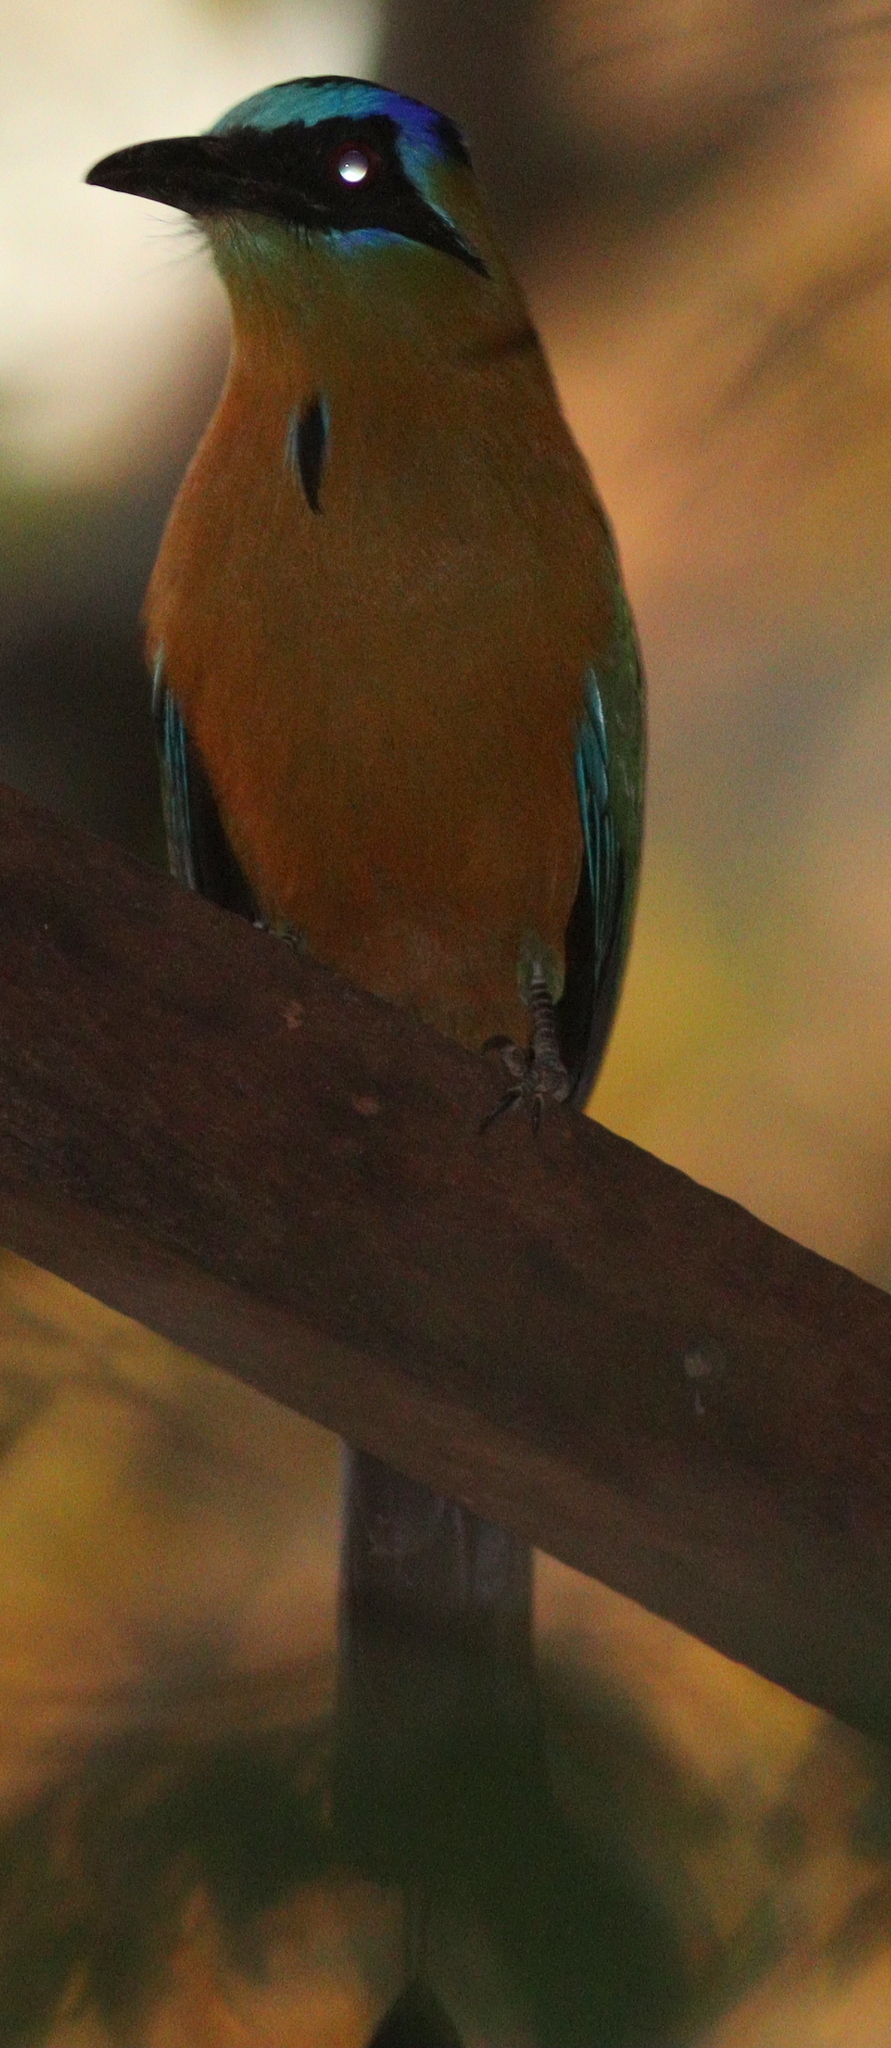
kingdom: Animalia
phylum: Chordata
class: Aves
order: Coraciiformes
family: Momotidae
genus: Momotus
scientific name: Momotus momota
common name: Amazonian motmot
